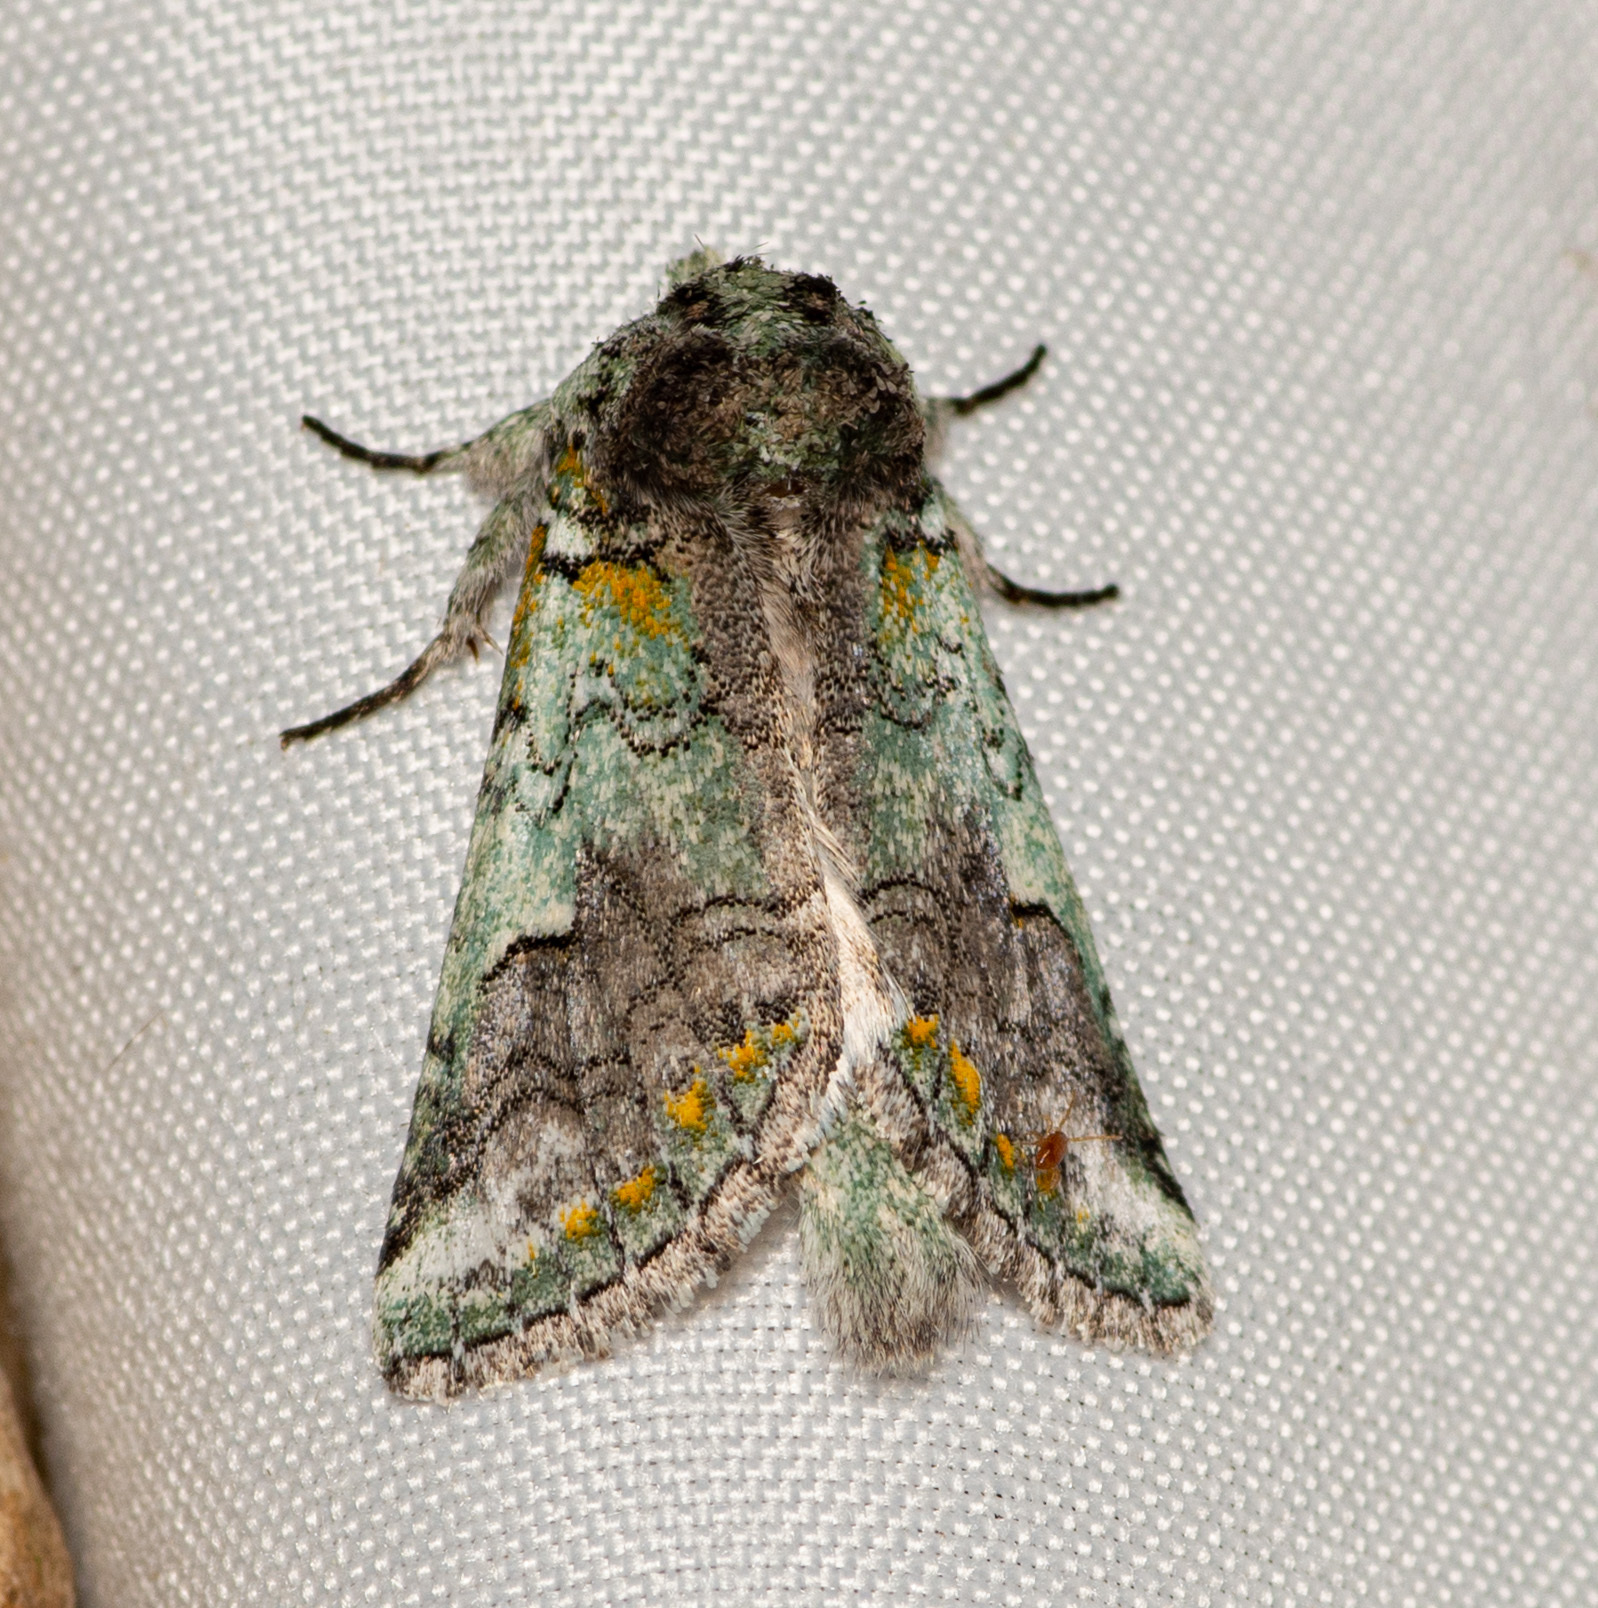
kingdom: Animalia
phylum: Arthropoda
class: Insecta
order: Lepidoptera
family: Notodontidae
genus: Litodonta
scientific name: Litodonta hydromeli
